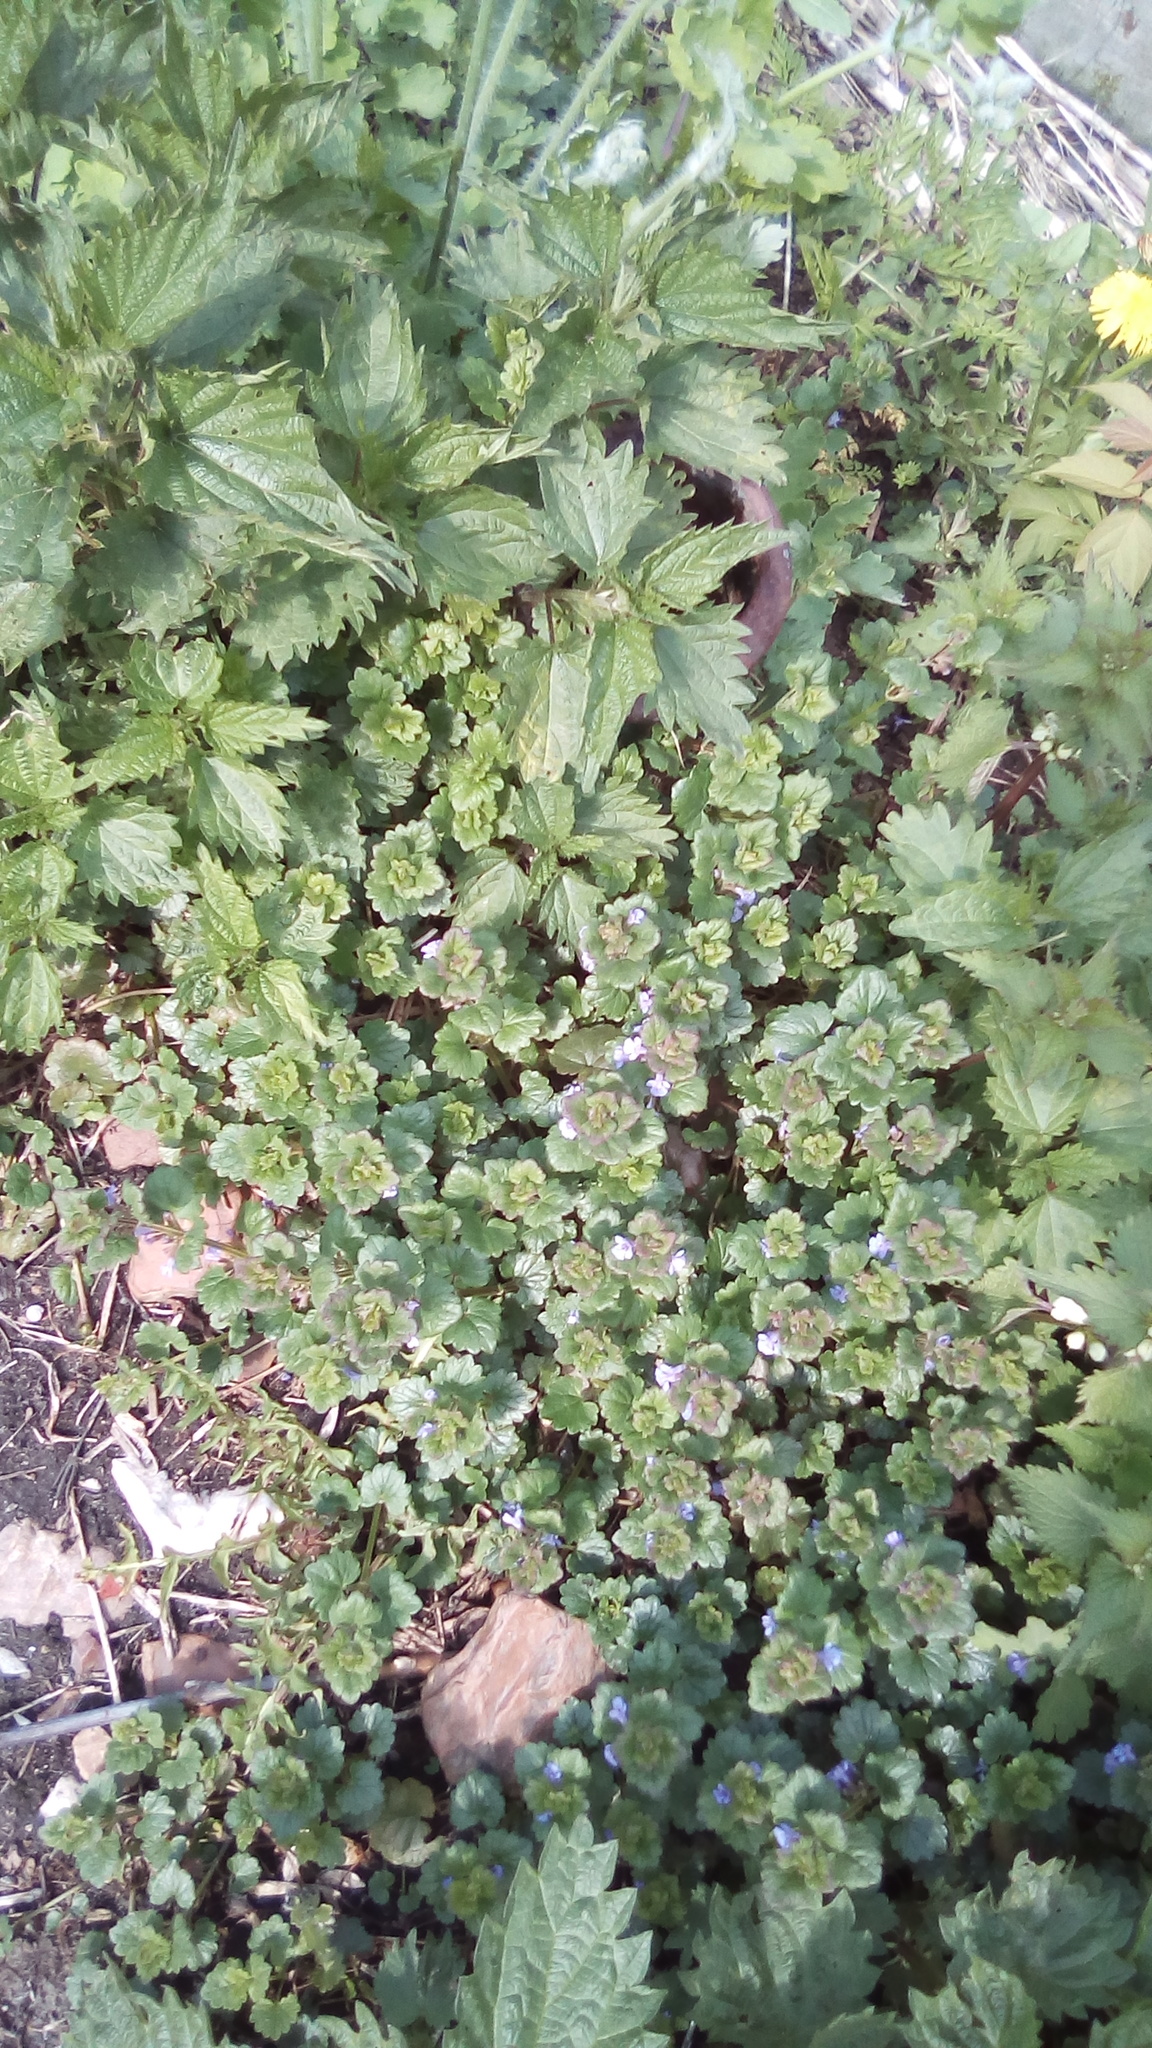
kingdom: Plantae
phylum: Tracheophyta
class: Magnoliopsida
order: Lamiales
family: Lamiaceae
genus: Glechoma
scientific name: Glechoma hederacea
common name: Ground ivy
